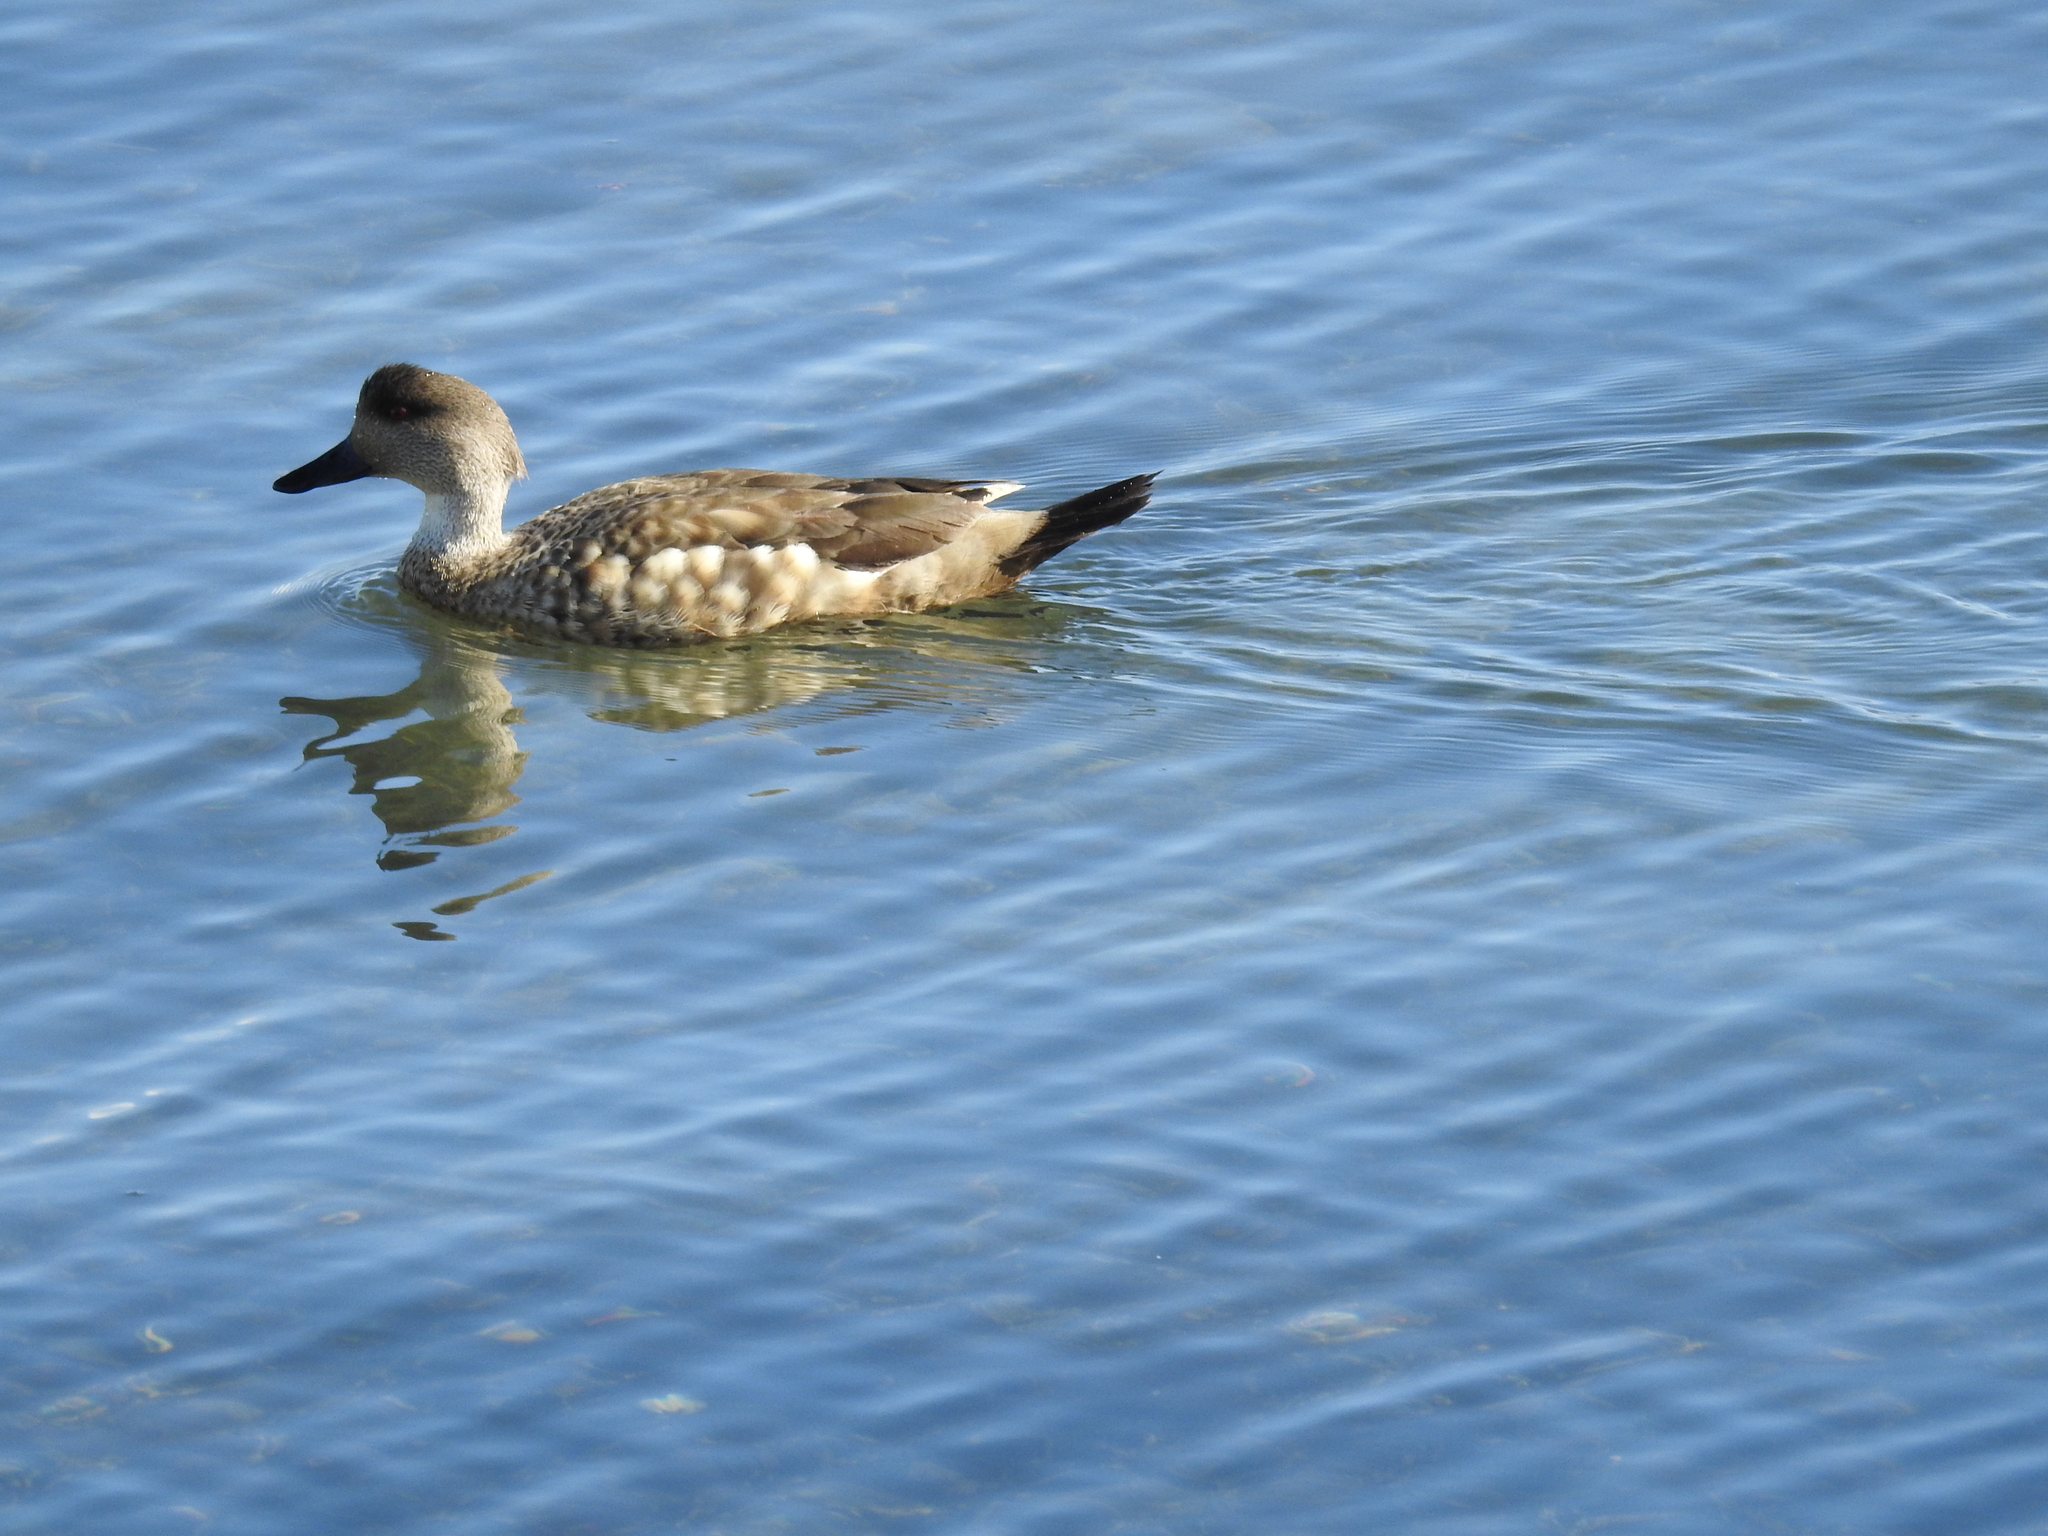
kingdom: Animalia
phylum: Chordata
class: Aves
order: Anseriformes
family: Anatidae
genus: Lophonetta
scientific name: Lophonetta specularioides
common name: Crested duck
